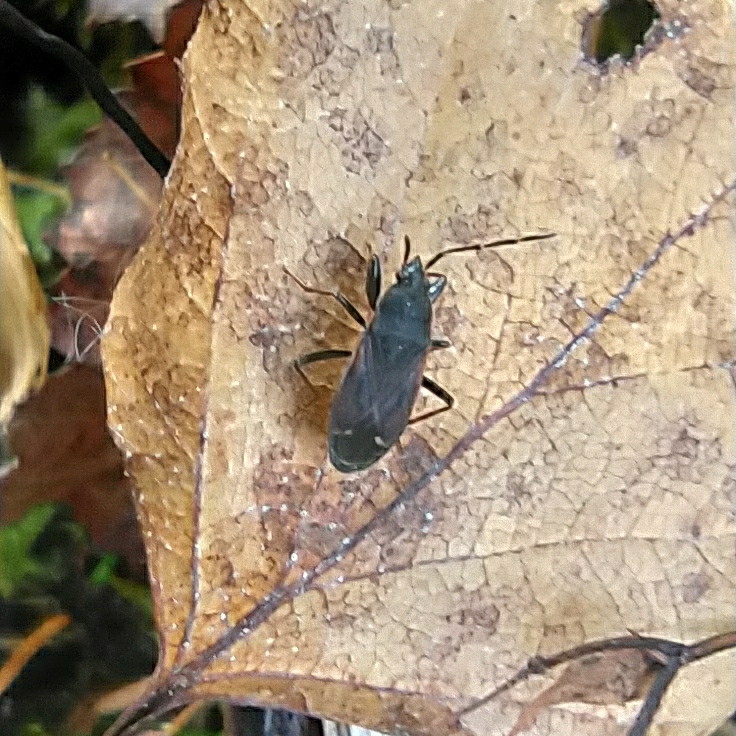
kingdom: Animalia
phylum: Arthropoda
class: Insecta
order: Hemiptera
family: Rhyparochromidae
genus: Eremocoris
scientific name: Eremocoris plebejus
